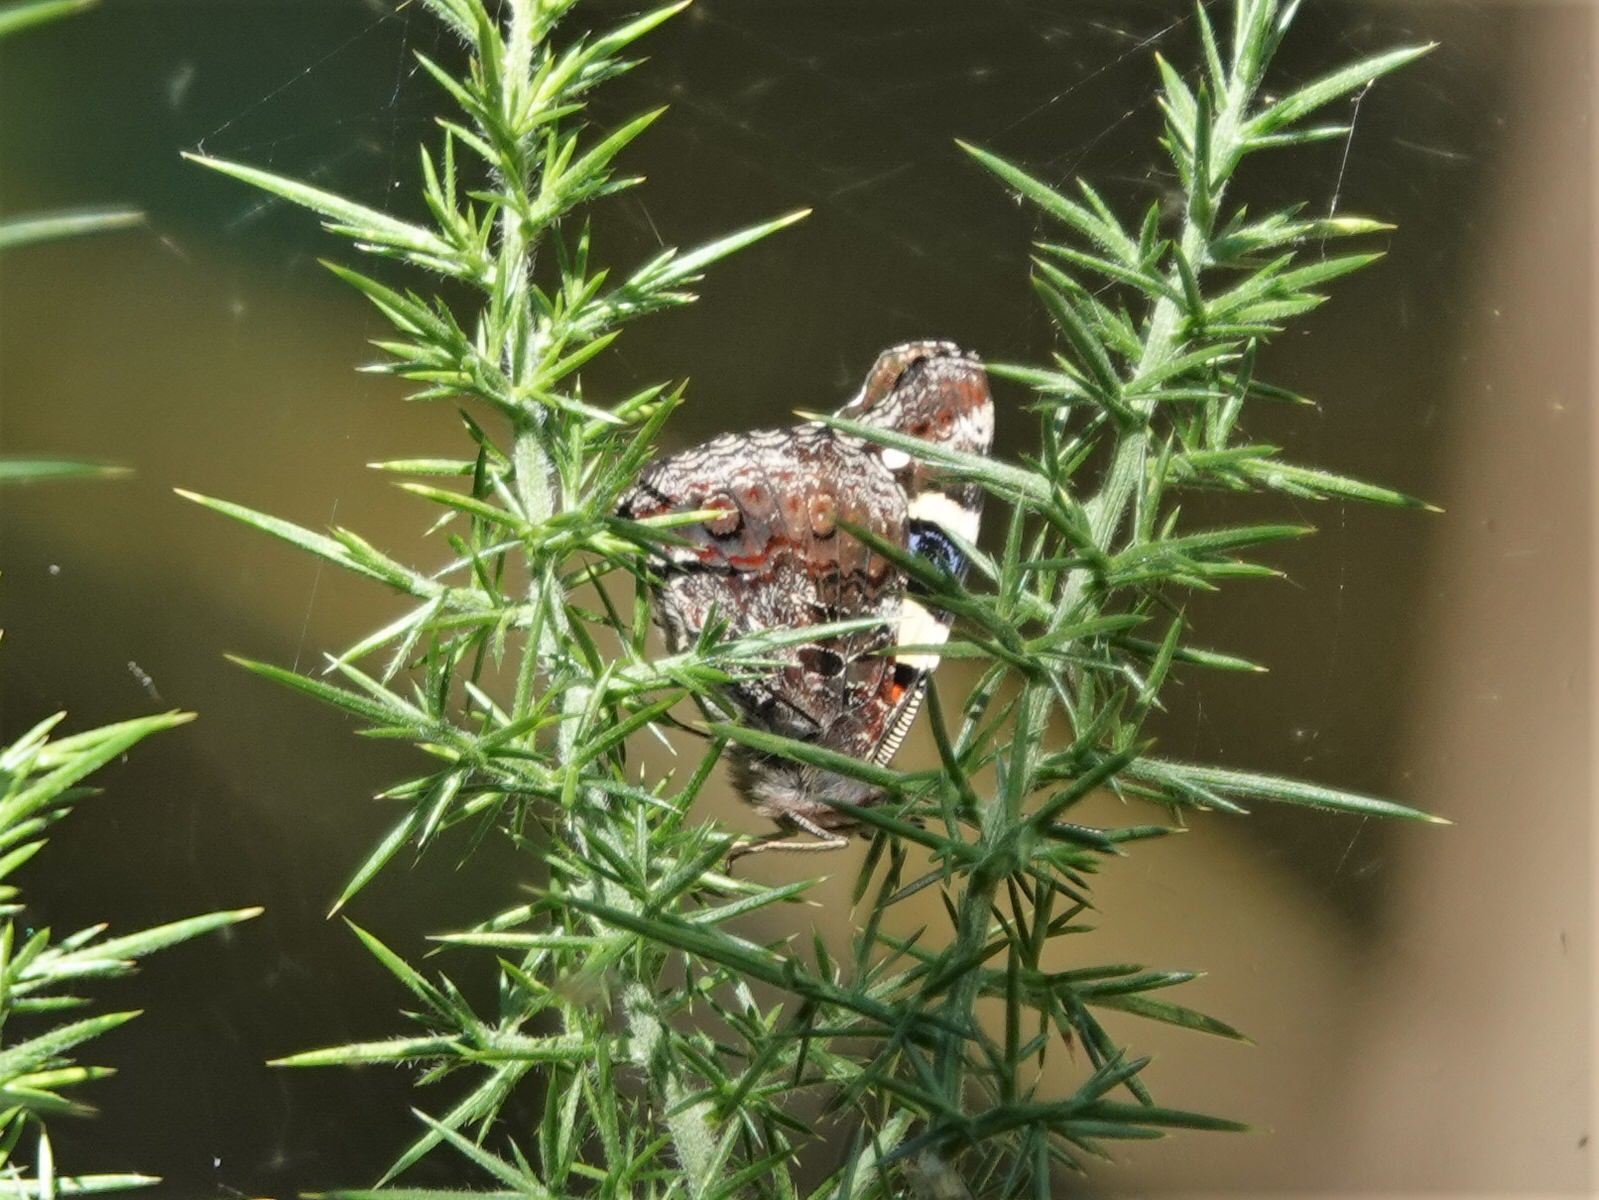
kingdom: Animalia
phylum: Arthropoda
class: Insecta
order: Lepidoptera
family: Nymphalidae
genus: Vanessa
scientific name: Vanessa itea
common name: Yellow admiral
